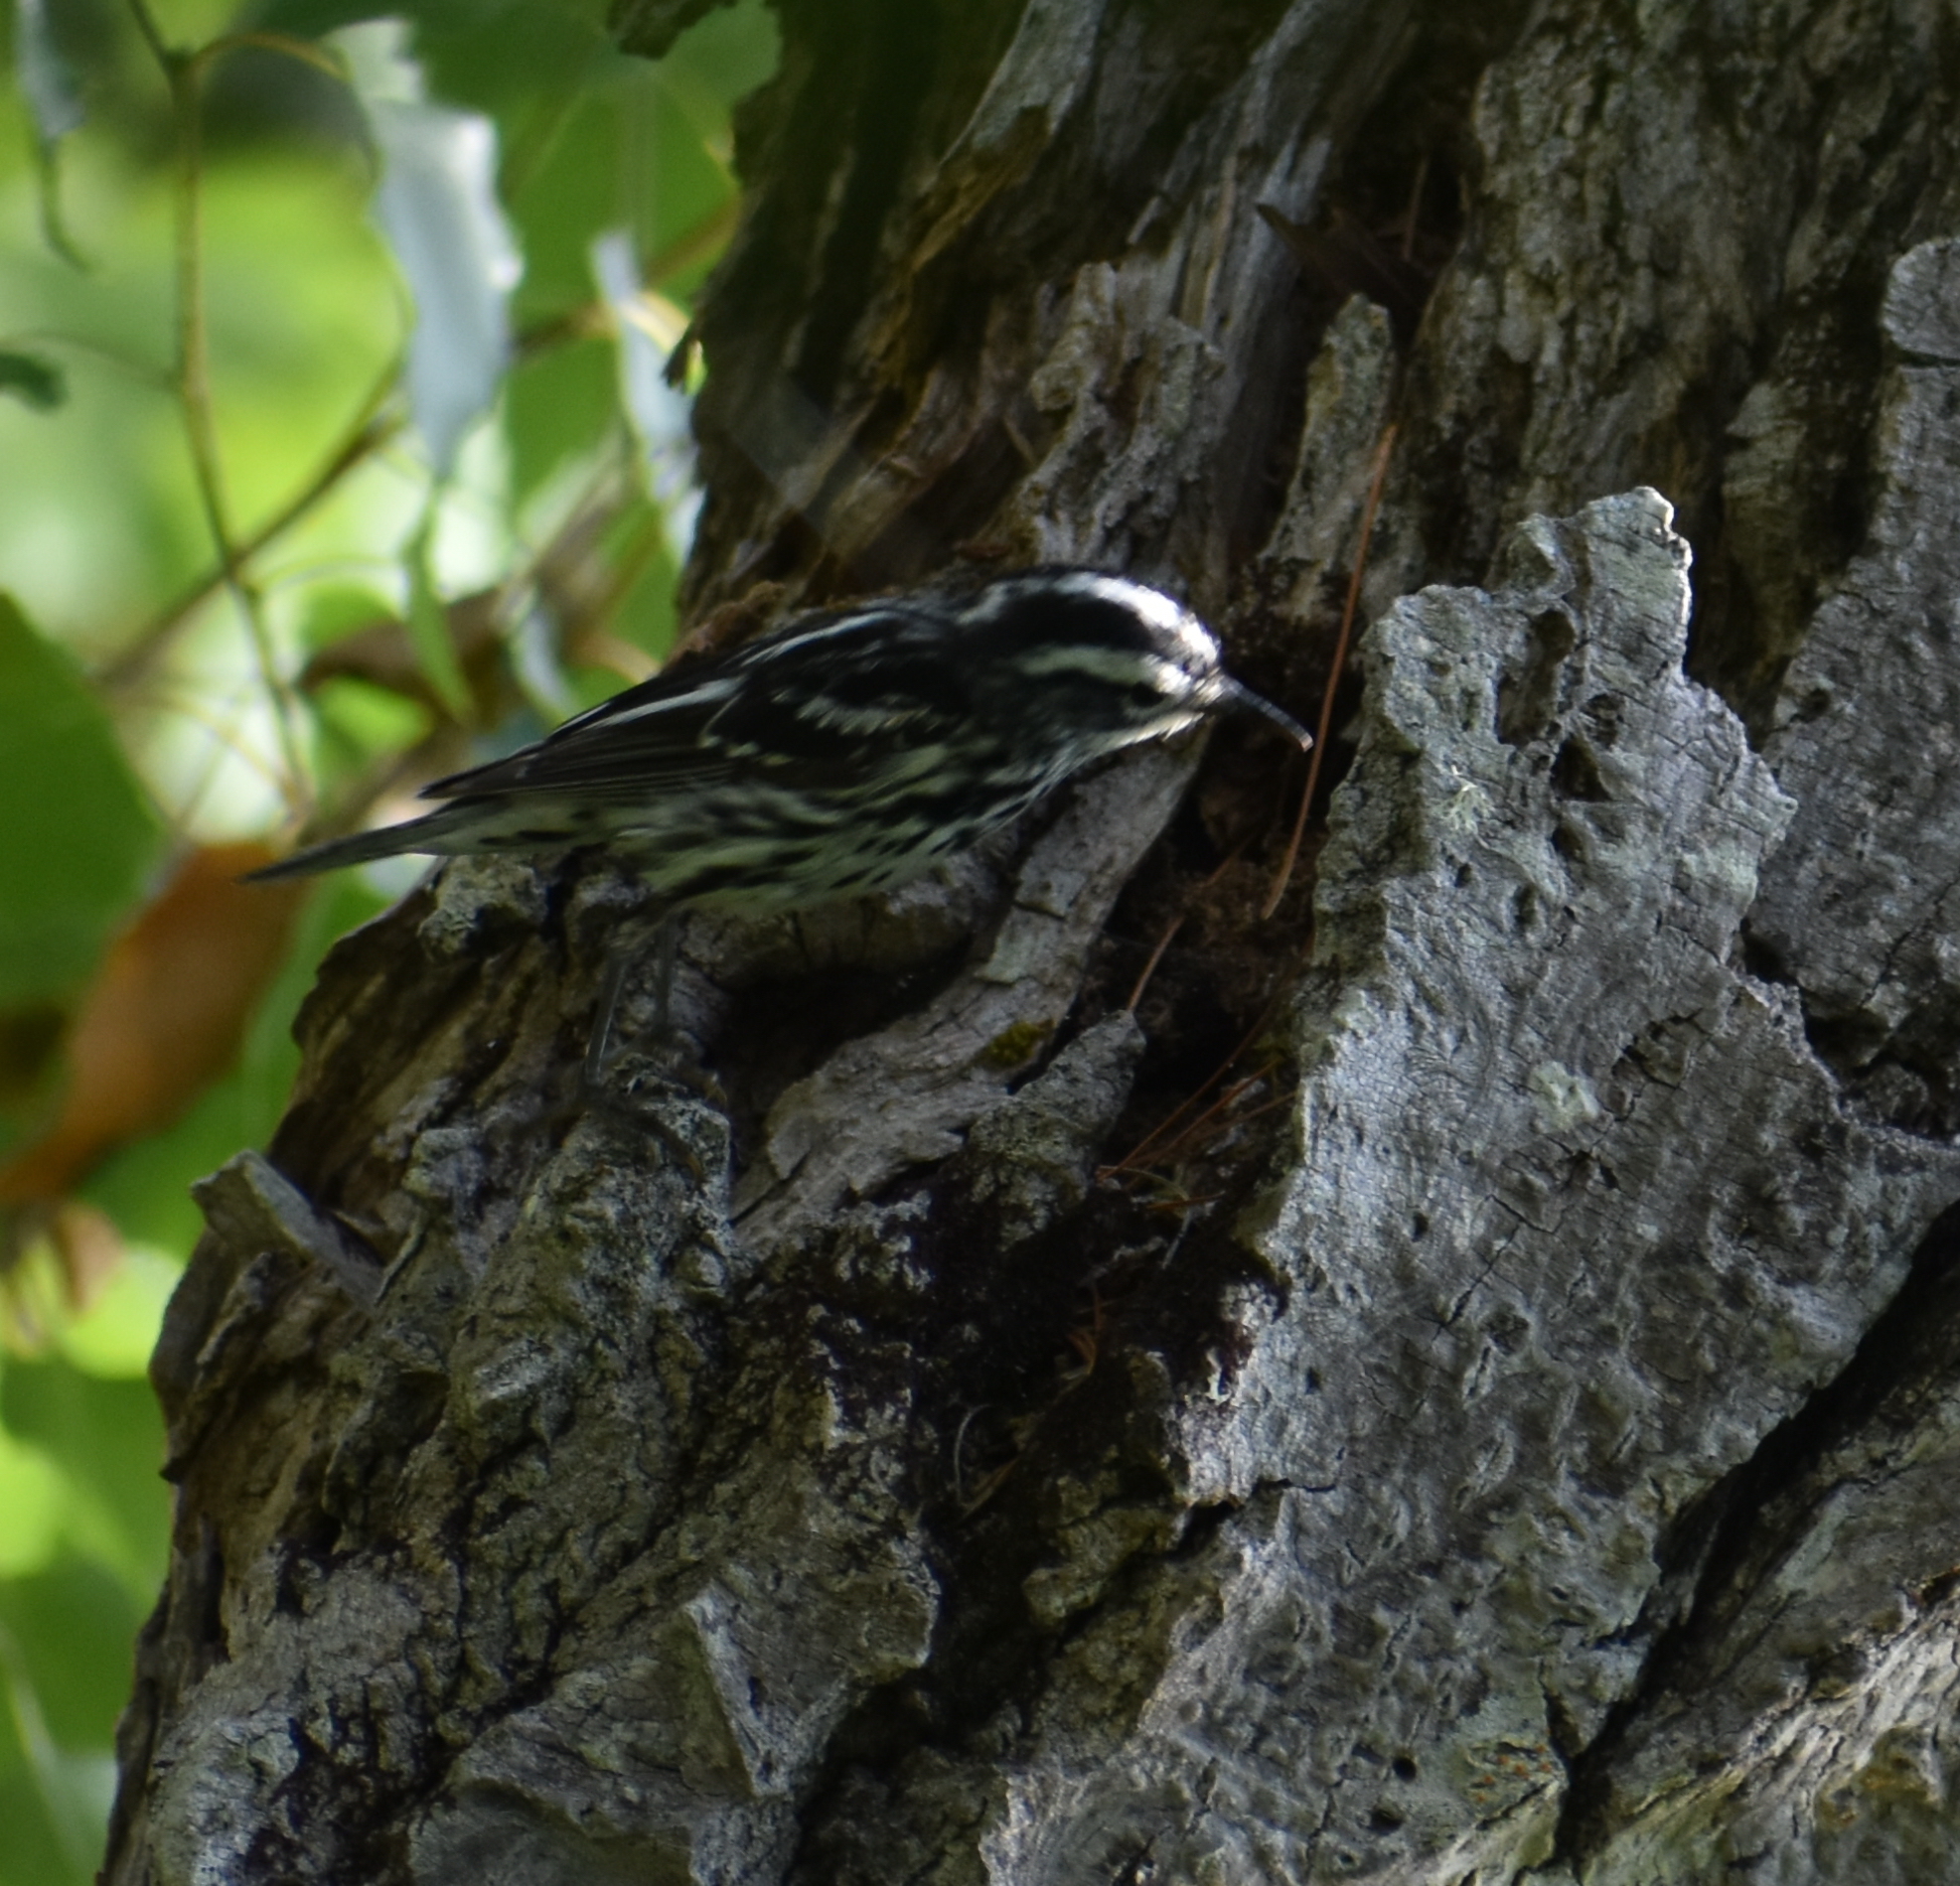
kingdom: Animalia
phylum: Chordata
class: Aves
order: Passeriformes
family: Parulidae
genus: Mniotilta
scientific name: Mniotilta varia
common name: Black-and-white warbler
